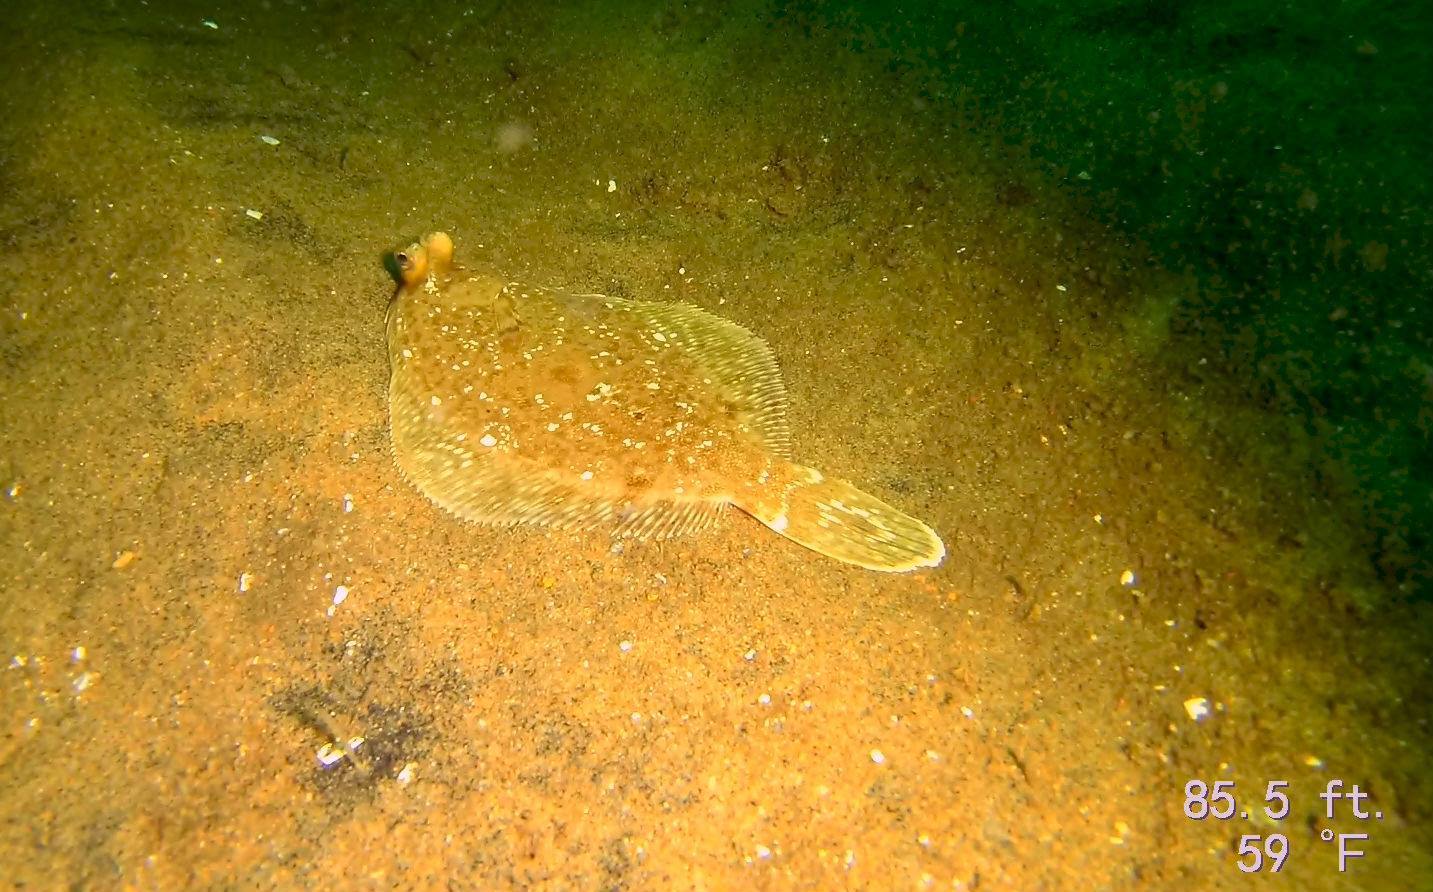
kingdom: Animalia
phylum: Chordata
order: Pleuronectiformes
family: Pleuronectidae
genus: Pleuronichthys
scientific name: Pleuronichthys coenosus
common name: C-o sole
